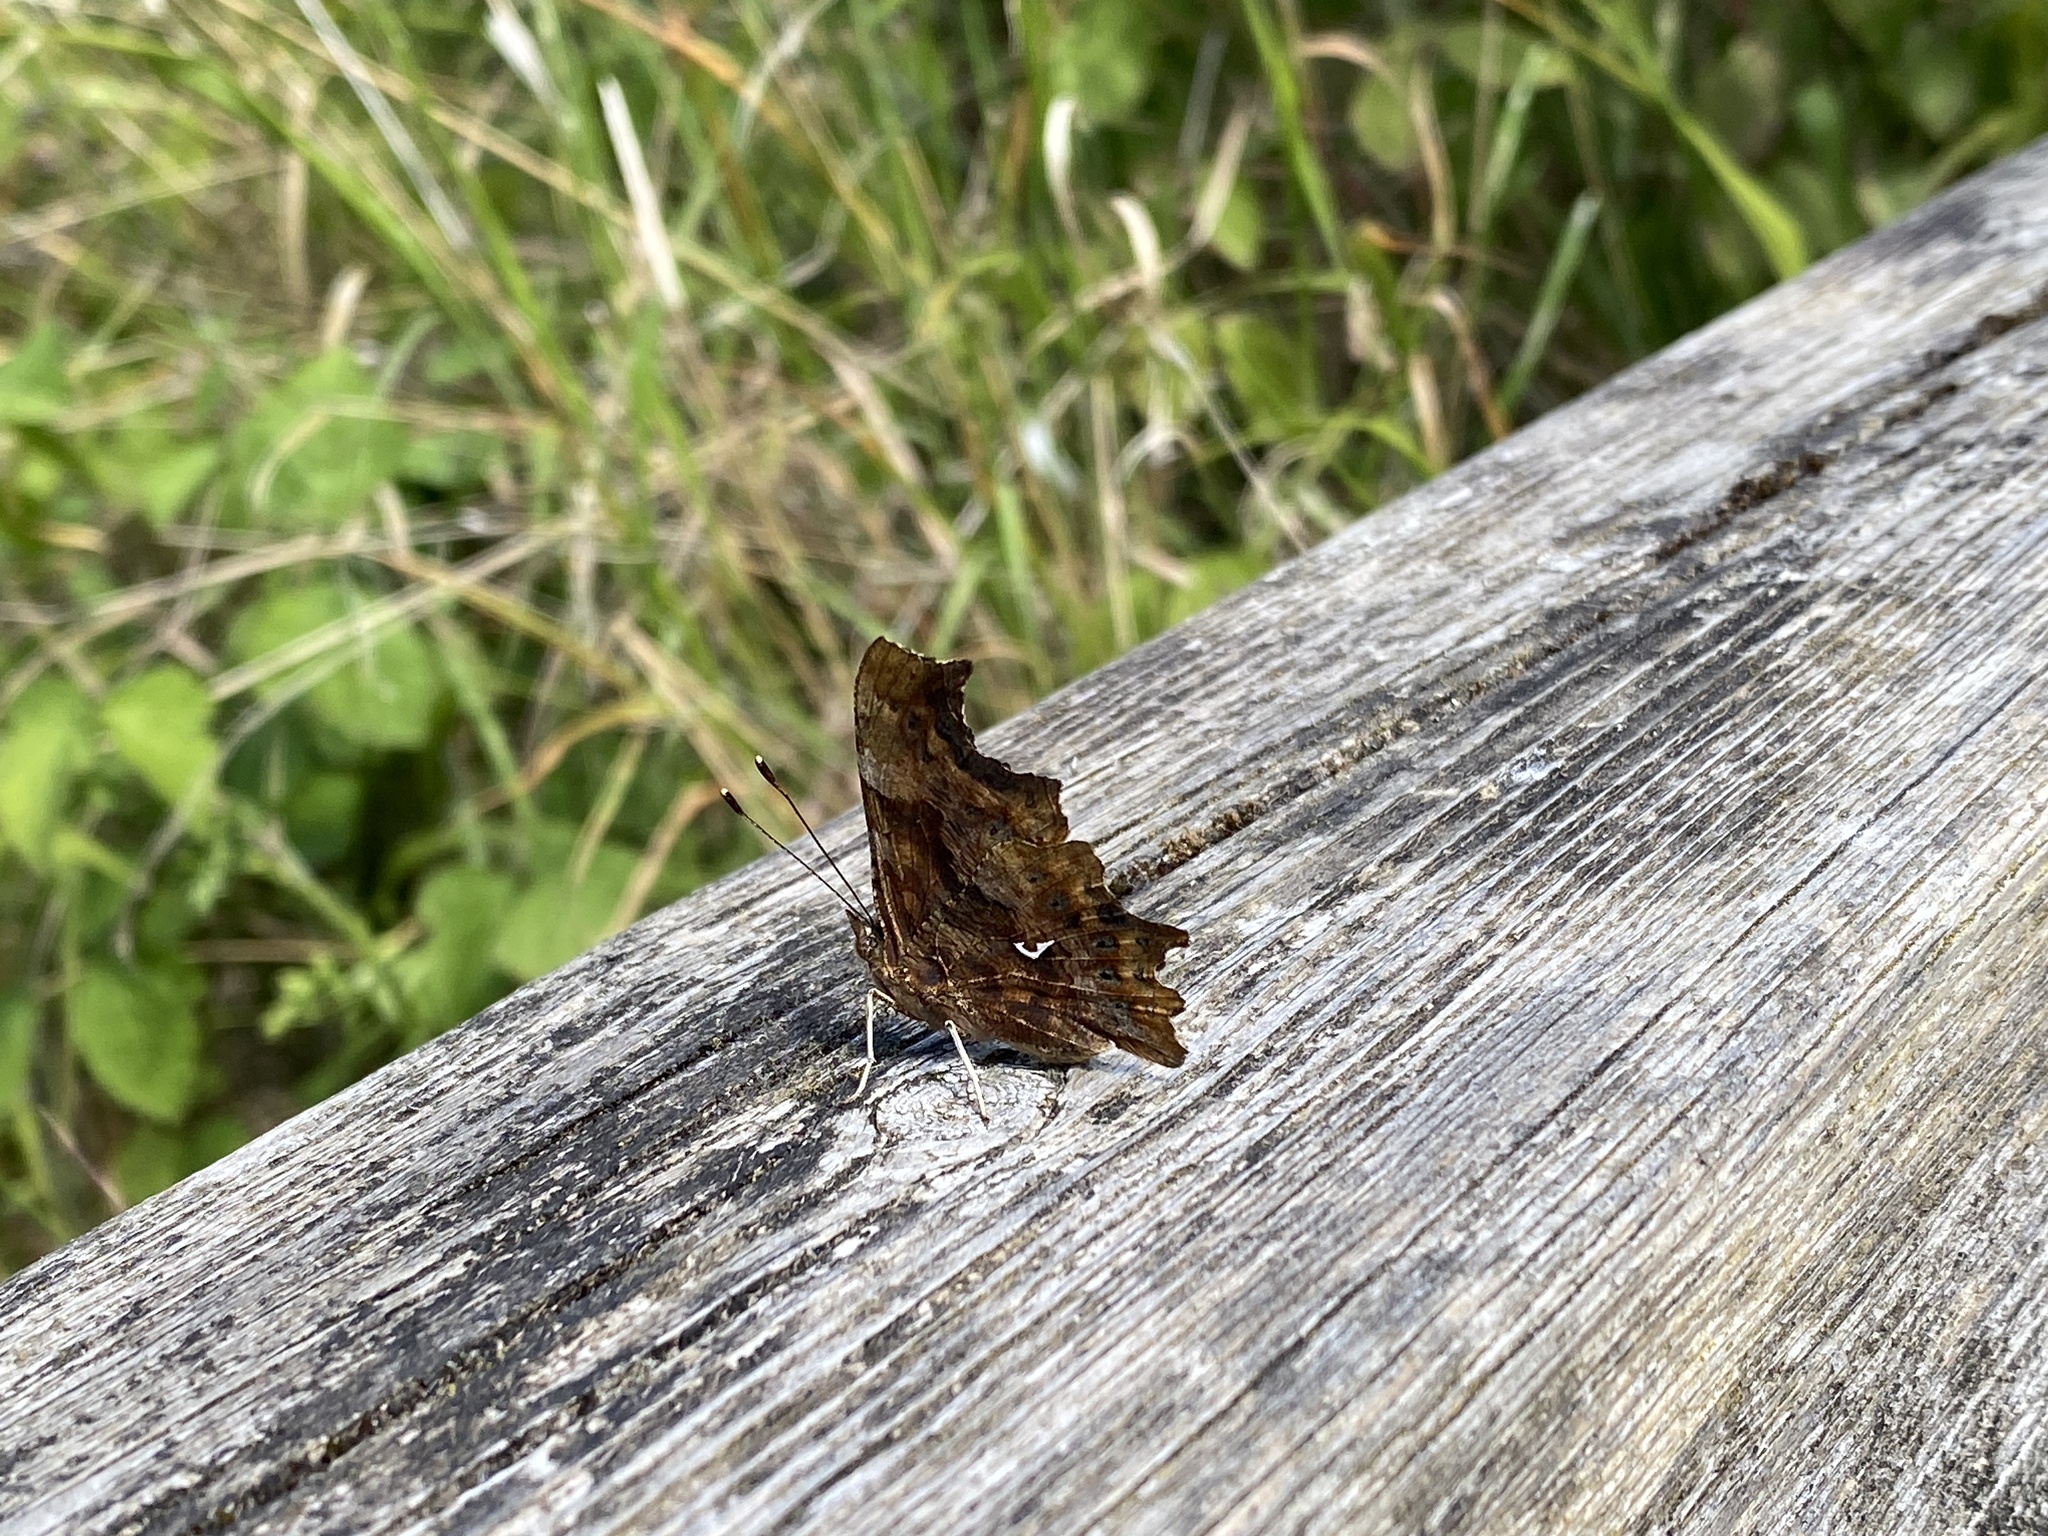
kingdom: Animalia
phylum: Arthropoda
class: Insecta
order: Lepidoptera
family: Nymphalidae
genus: Polygonia
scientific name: Polygonia c-album
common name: Comma
